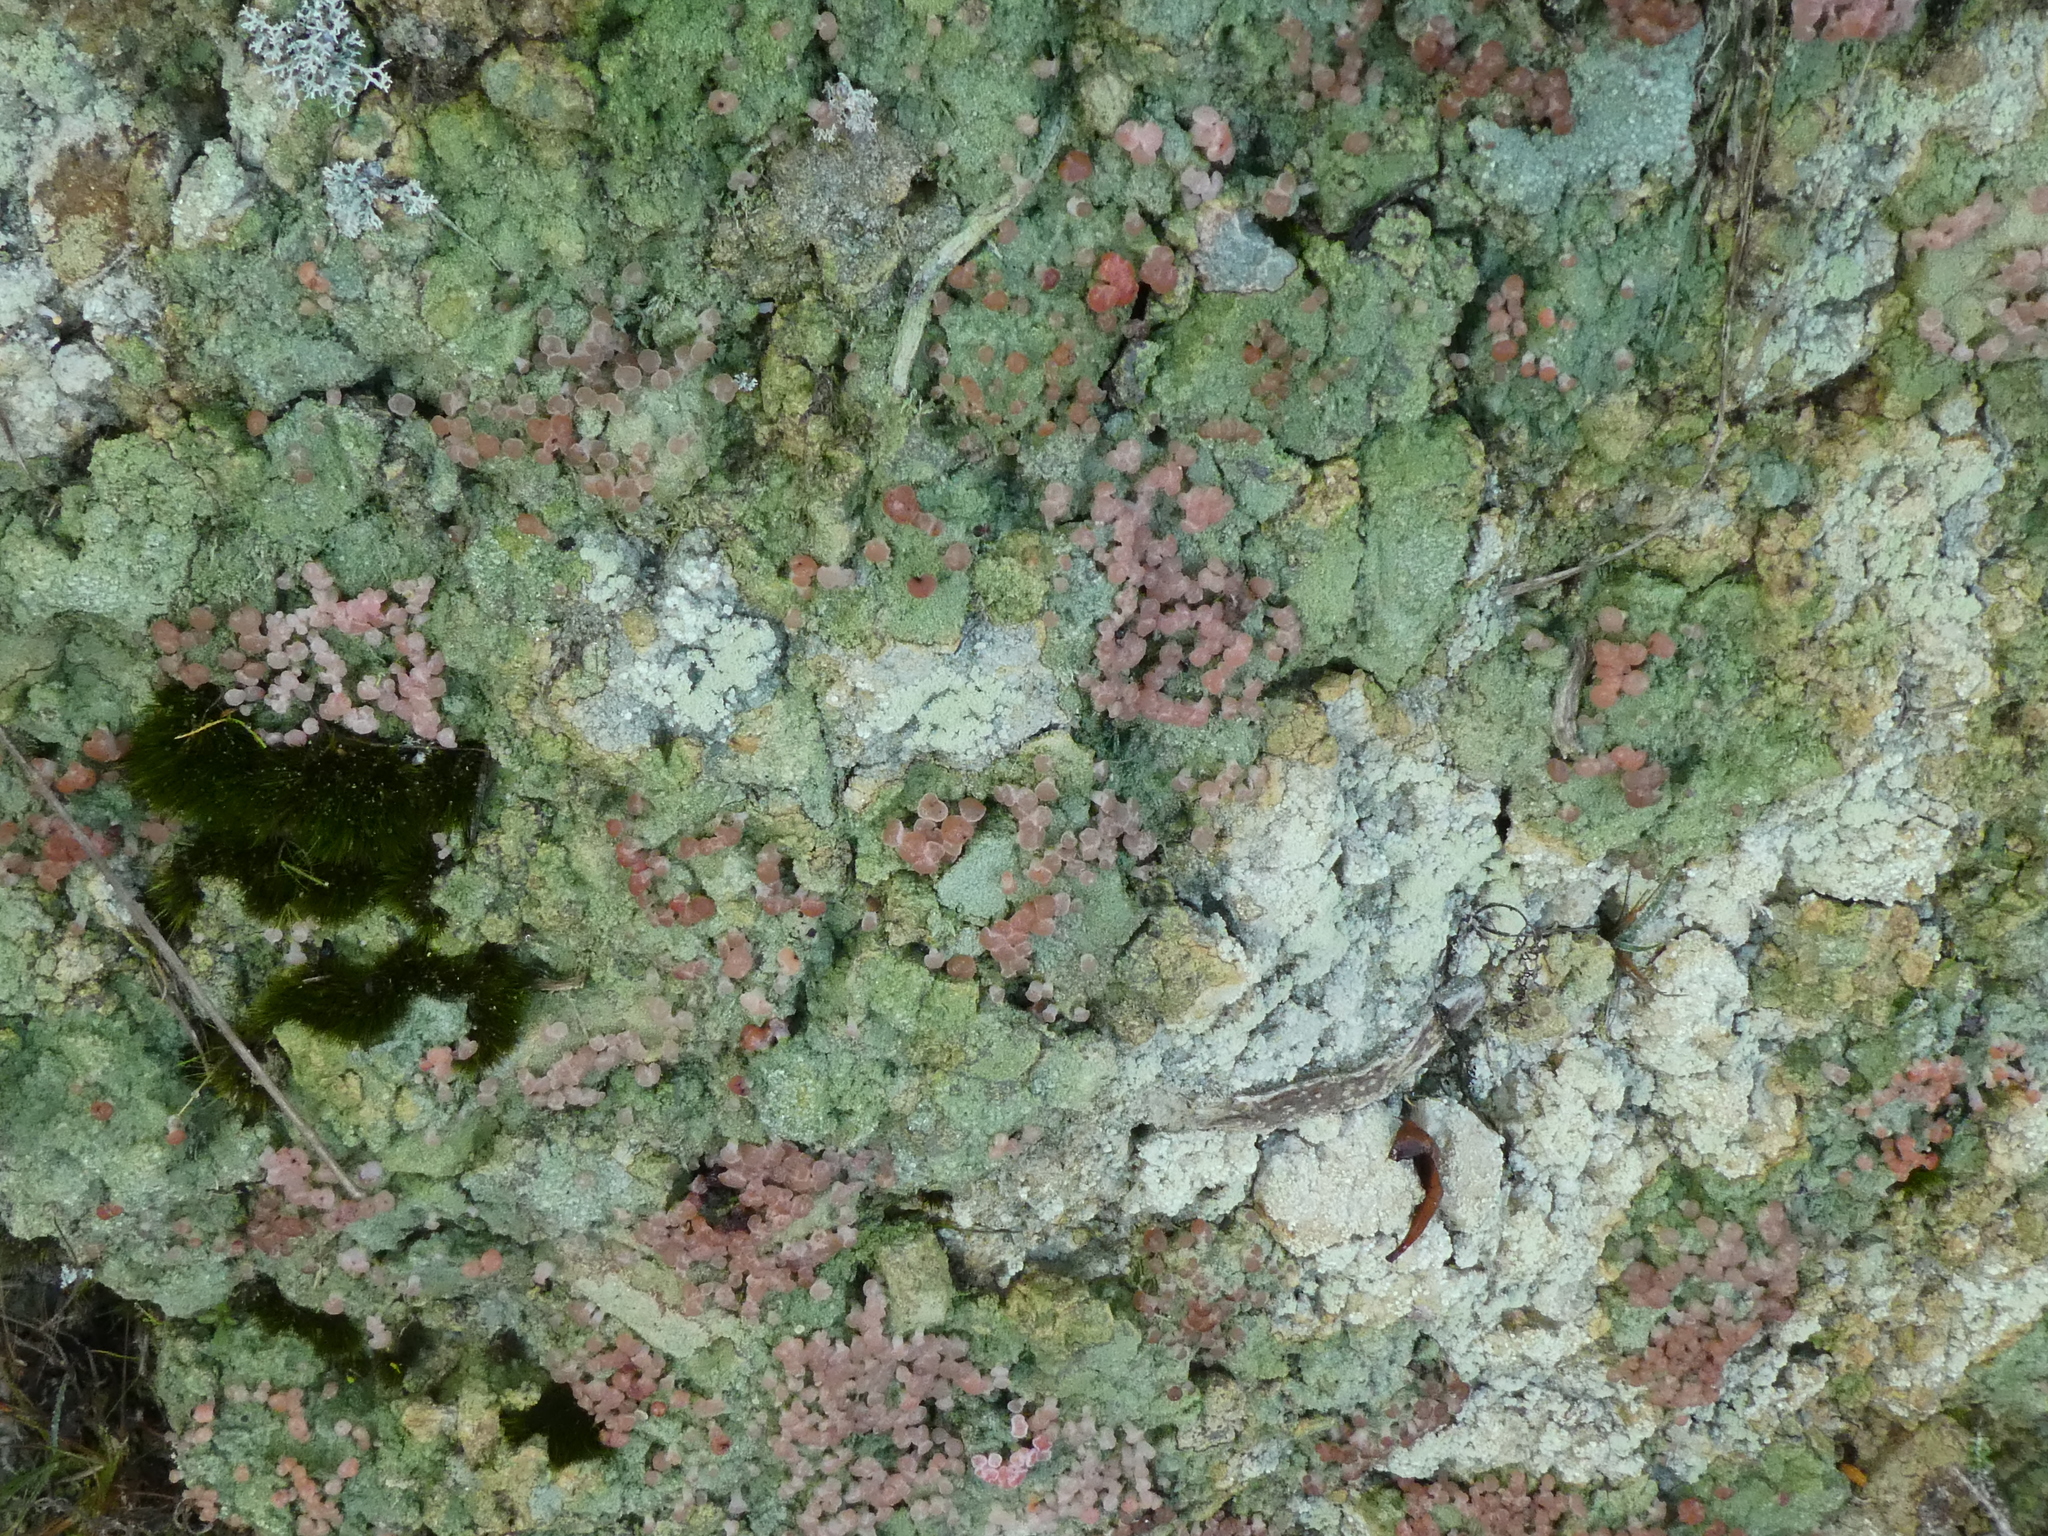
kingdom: Fungi
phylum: Ascomycota
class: Lecanoromycetes
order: Baeomycetales
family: Baeomycetaceae
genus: Baeomyces
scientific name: Baeomyces heteromorphus
